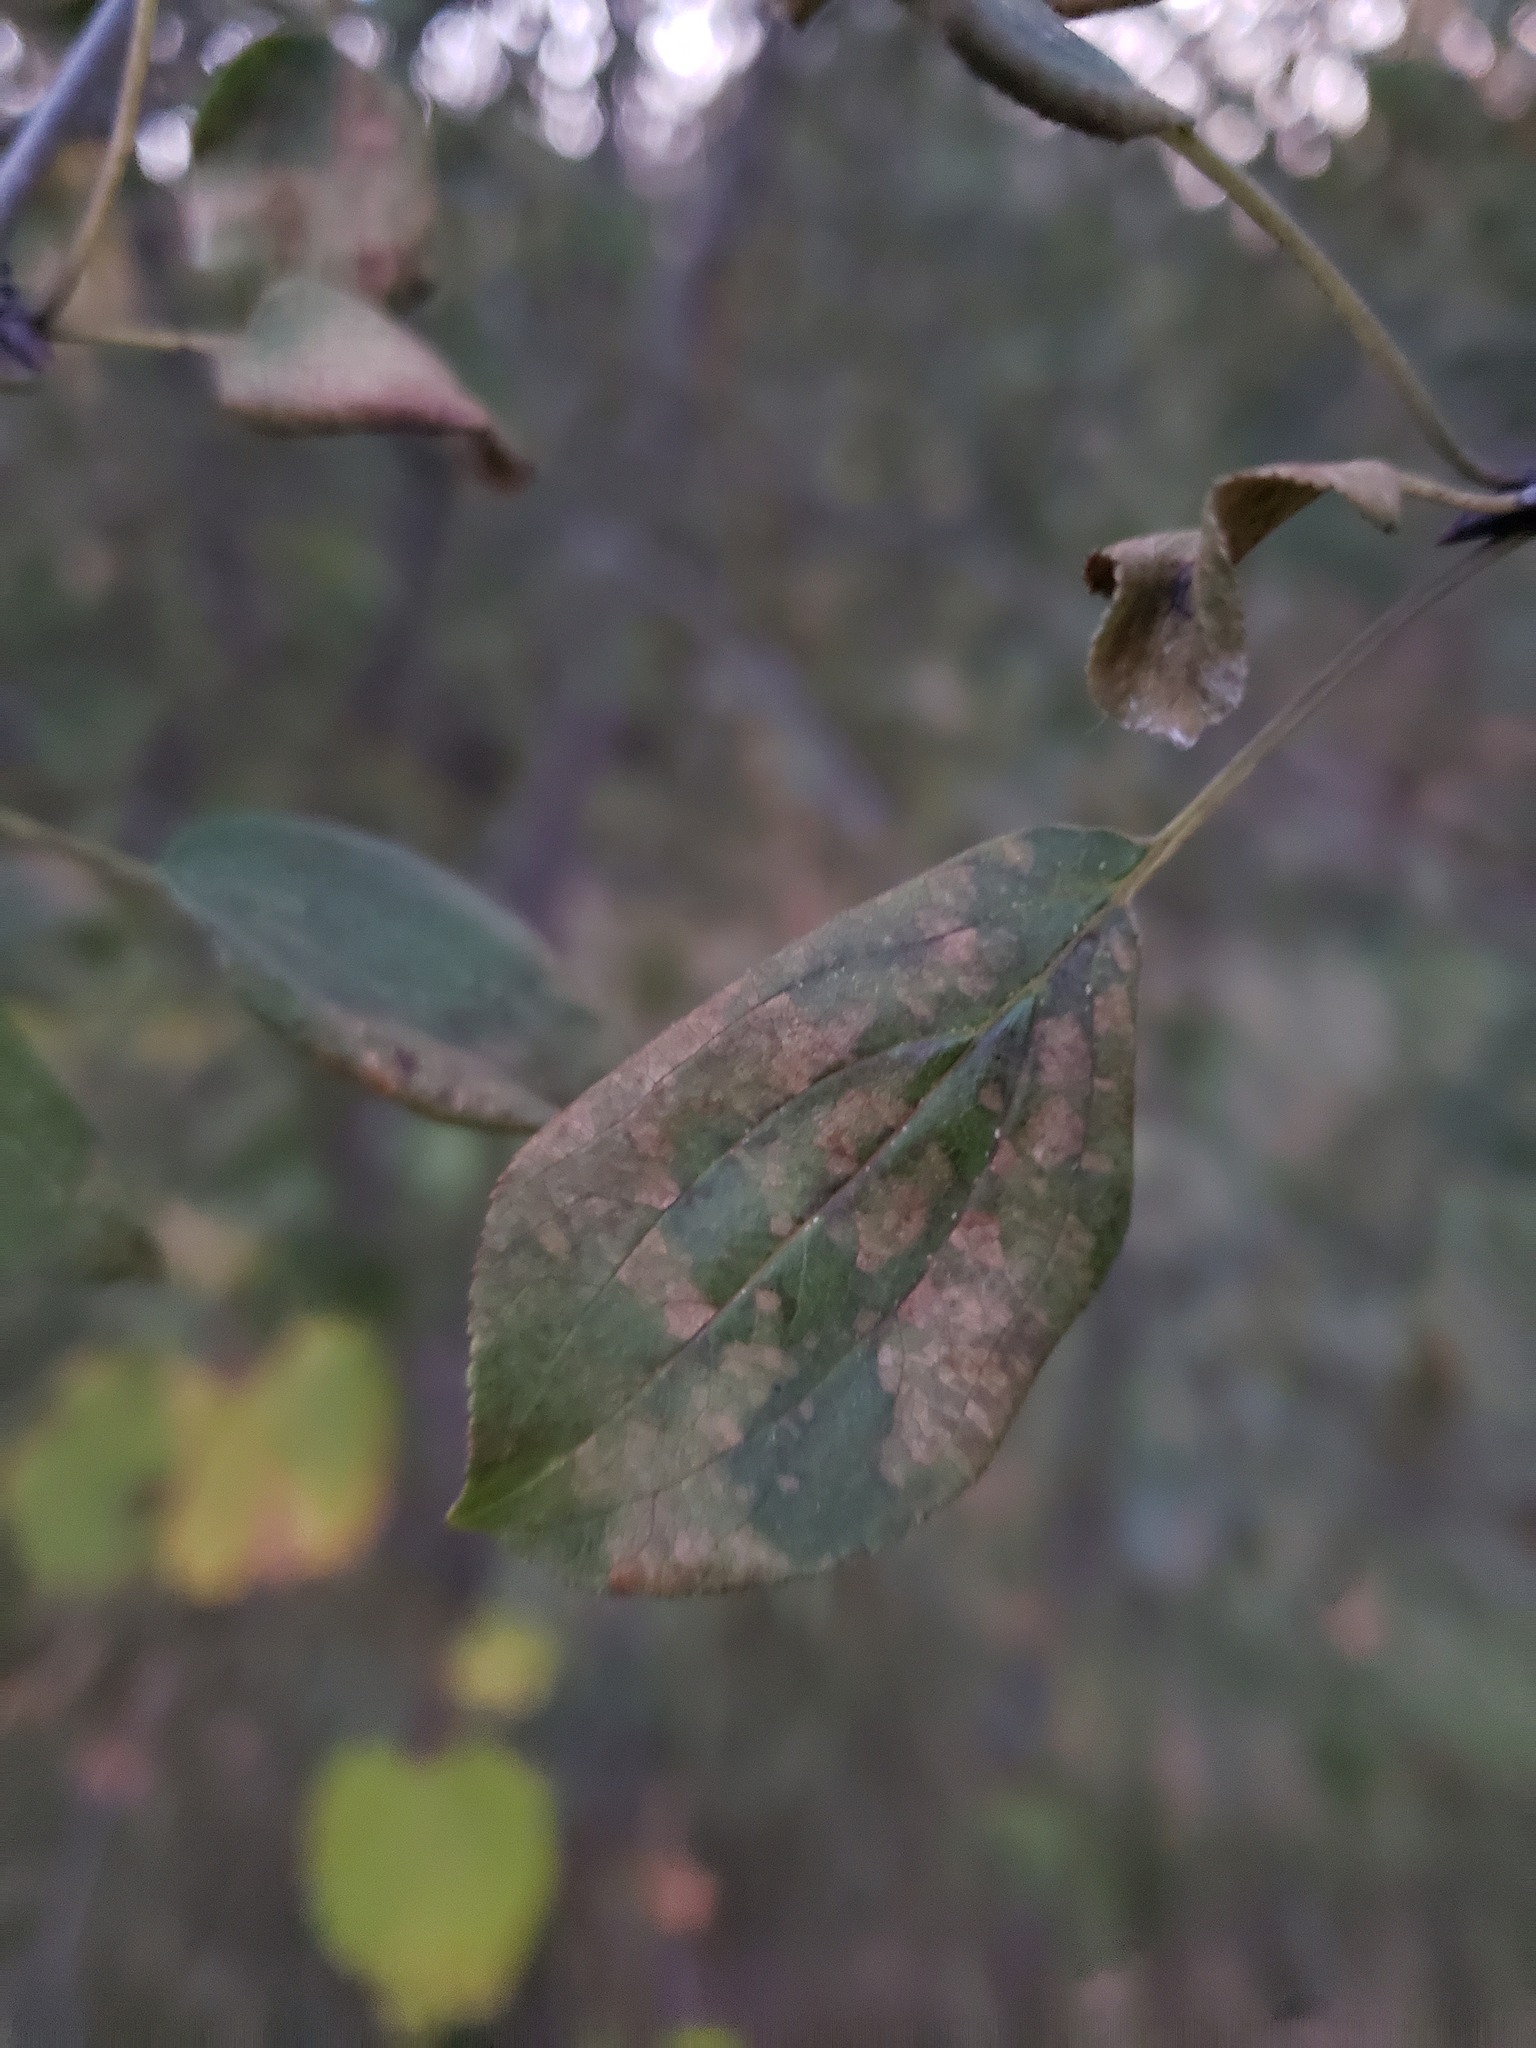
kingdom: Plantae
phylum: Tracheophyta
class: Magnoliopsida
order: Rosales
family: Rhamnaceae
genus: Rhamnus
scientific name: Rhamnus cathartica
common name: Common buckthorn
